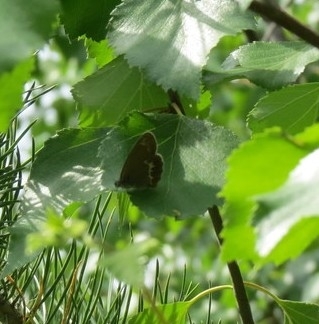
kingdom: Animalia
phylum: Arthropoda
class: Insecta
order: Lepidoptera
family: Nymphalidae
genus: Coenonympha
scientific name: Coenonympha hero
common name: Scarce heath
